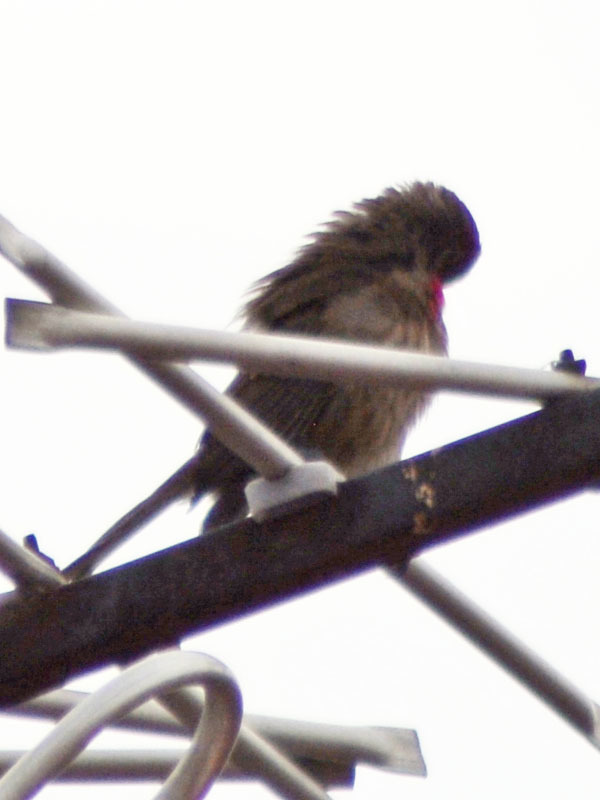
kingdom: Animalia
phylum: Chordata
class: Aves
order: Passeriformes
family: Fringillidae
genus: Haemorhous
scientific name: Haemorhous mexicanus
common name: House finch
